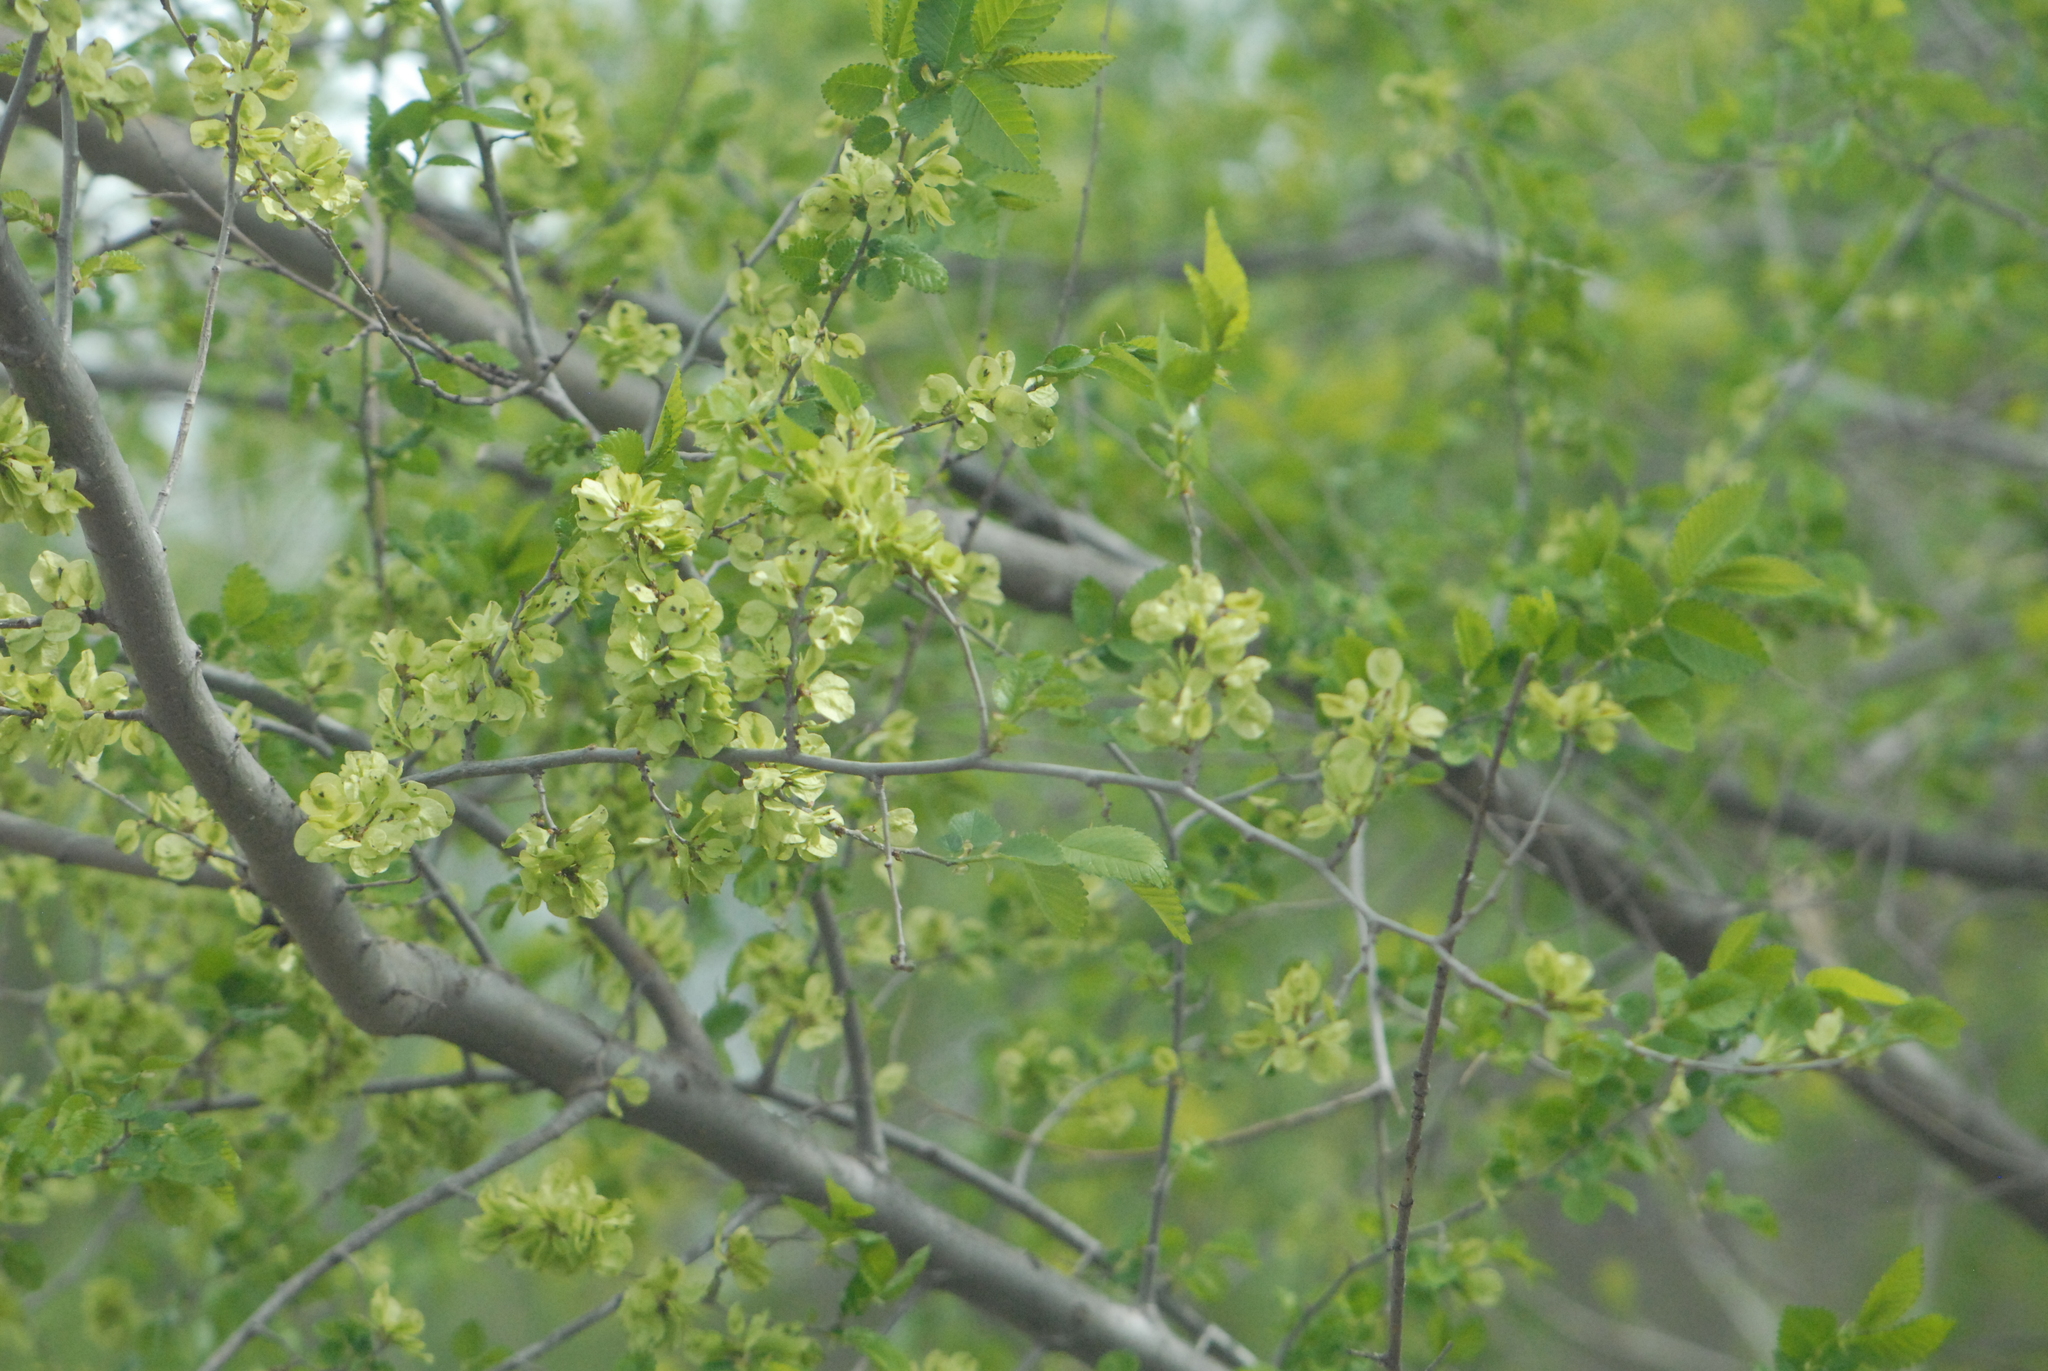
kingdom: Plantae
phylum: Tracheophyta
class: Magnoliopsida
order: Rosales
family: Ulmaceae
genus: Ulmus
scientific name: Ulmus pumila
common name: Siberian elm
